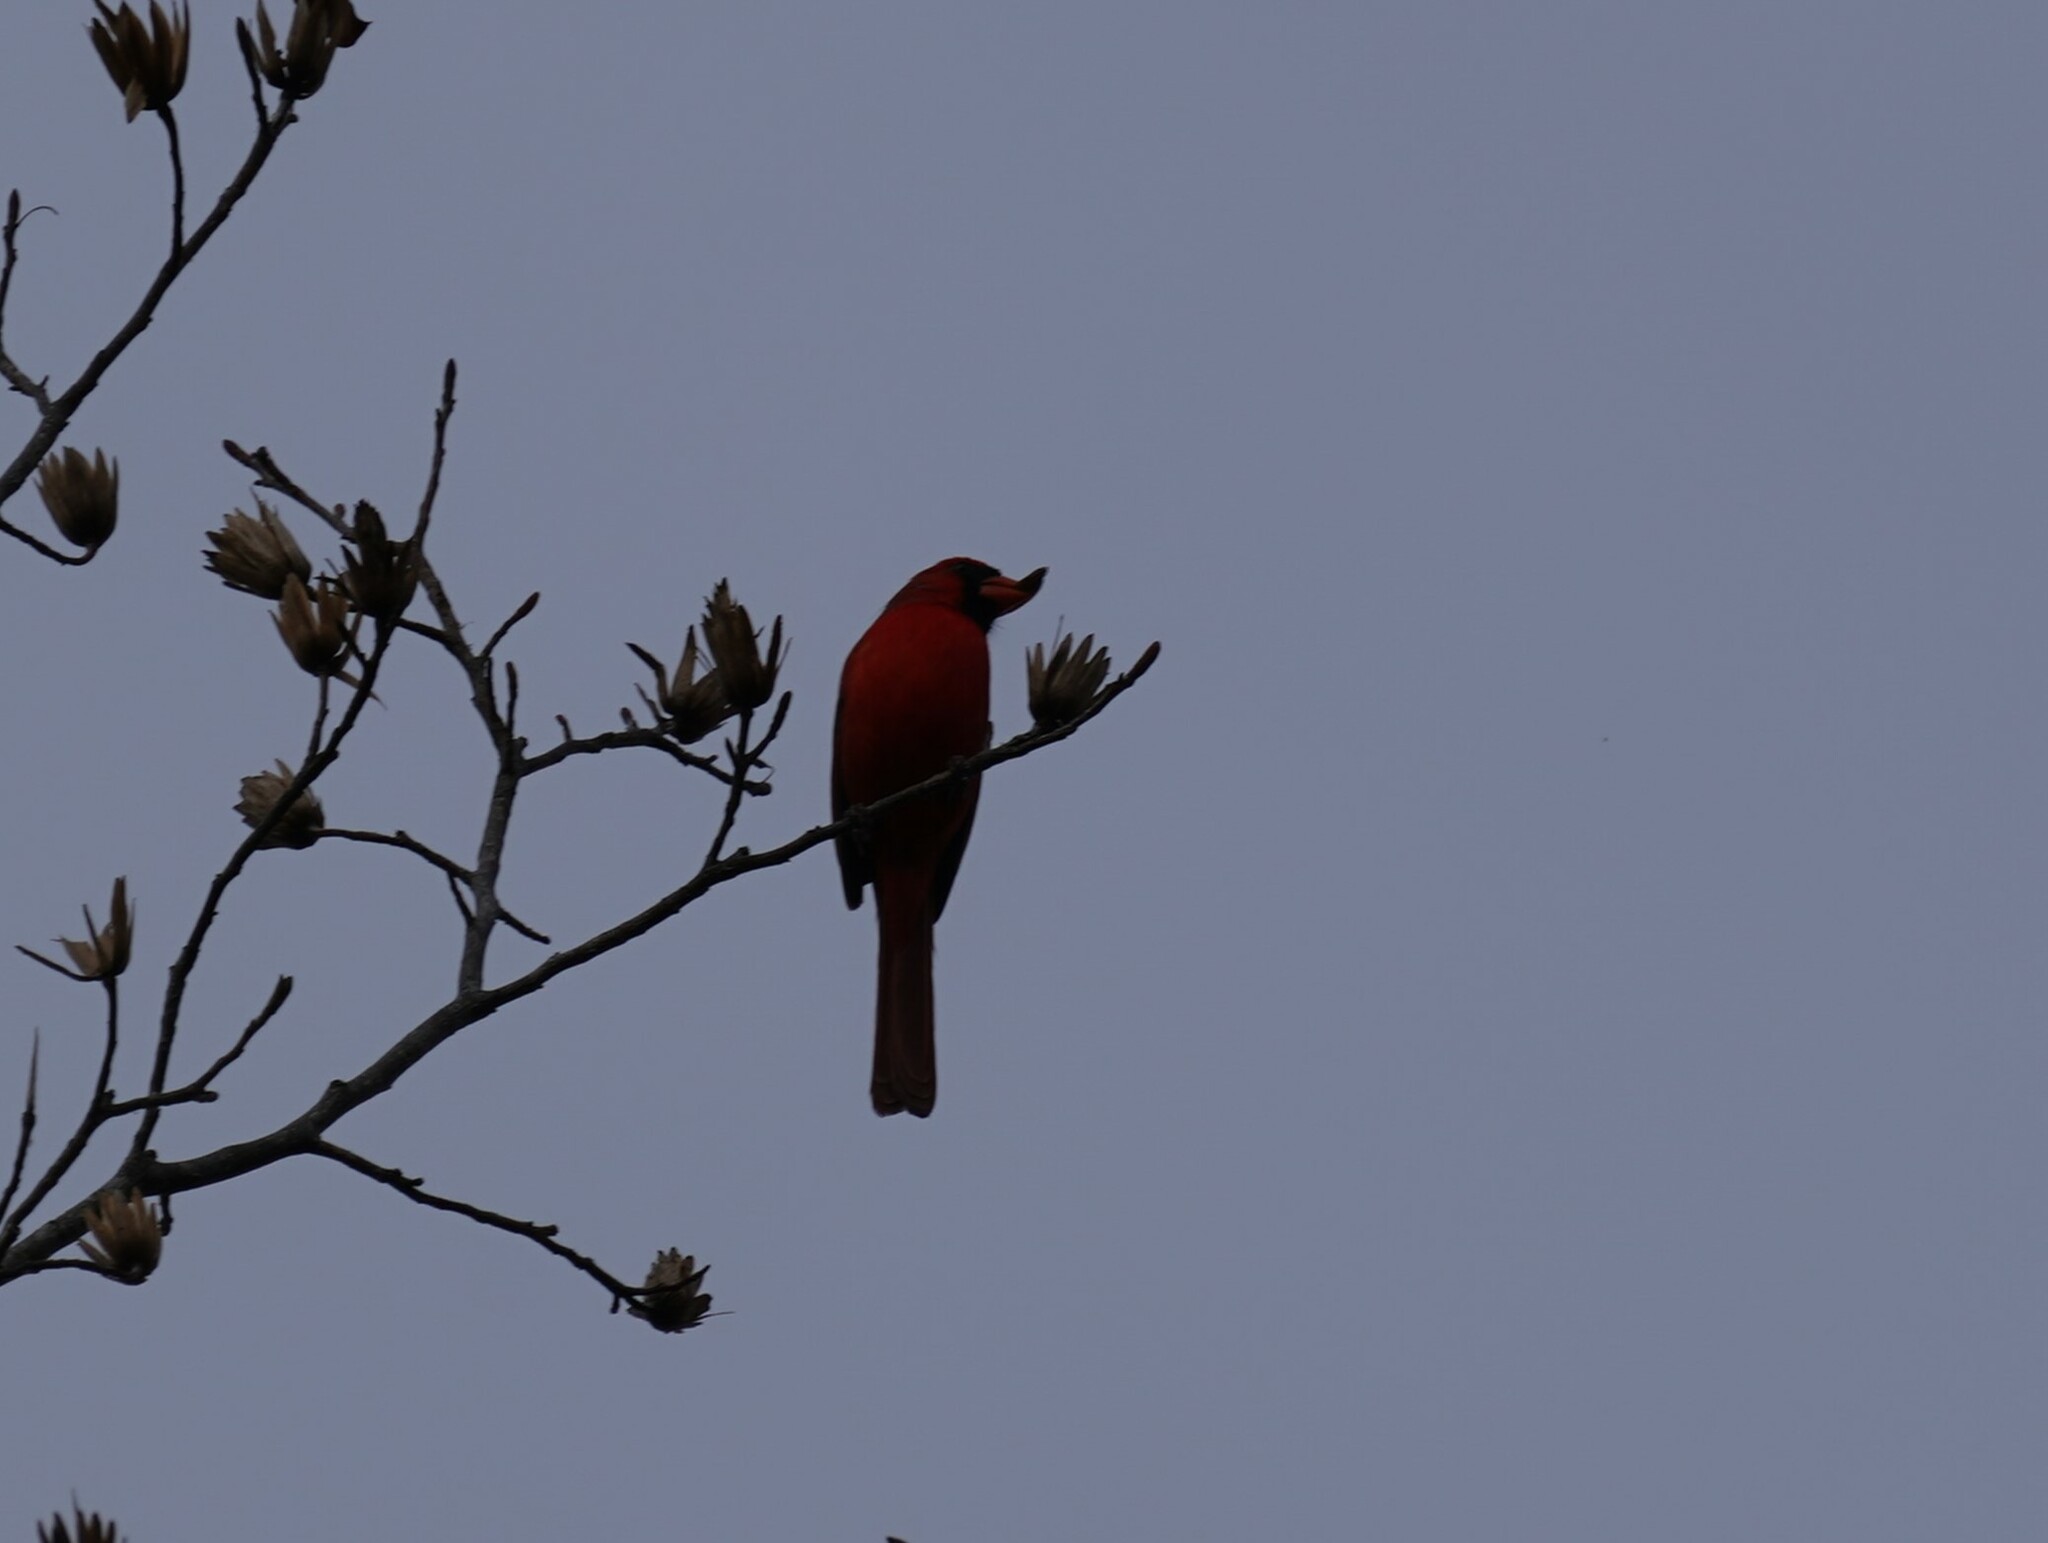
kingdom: Animalia
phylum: Chordata
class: Aves
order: Passeriformes
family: Cardinalidae
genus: Cardinalis
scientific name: Cardinalis cardinalis
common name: Northern cardinal
